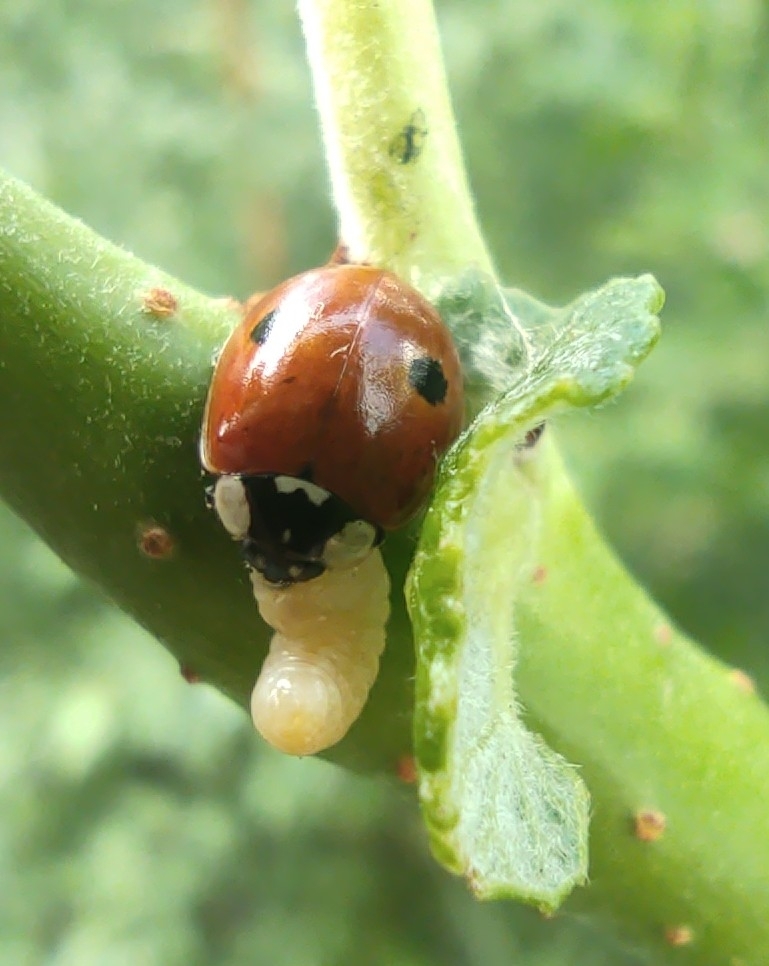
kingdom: Animalia
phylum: Arthropoda
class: Insecta
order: Coleoptera
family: Coccinellidae
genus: Adalia
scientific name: Adalia bipunctata
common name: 2-spot ladybird
